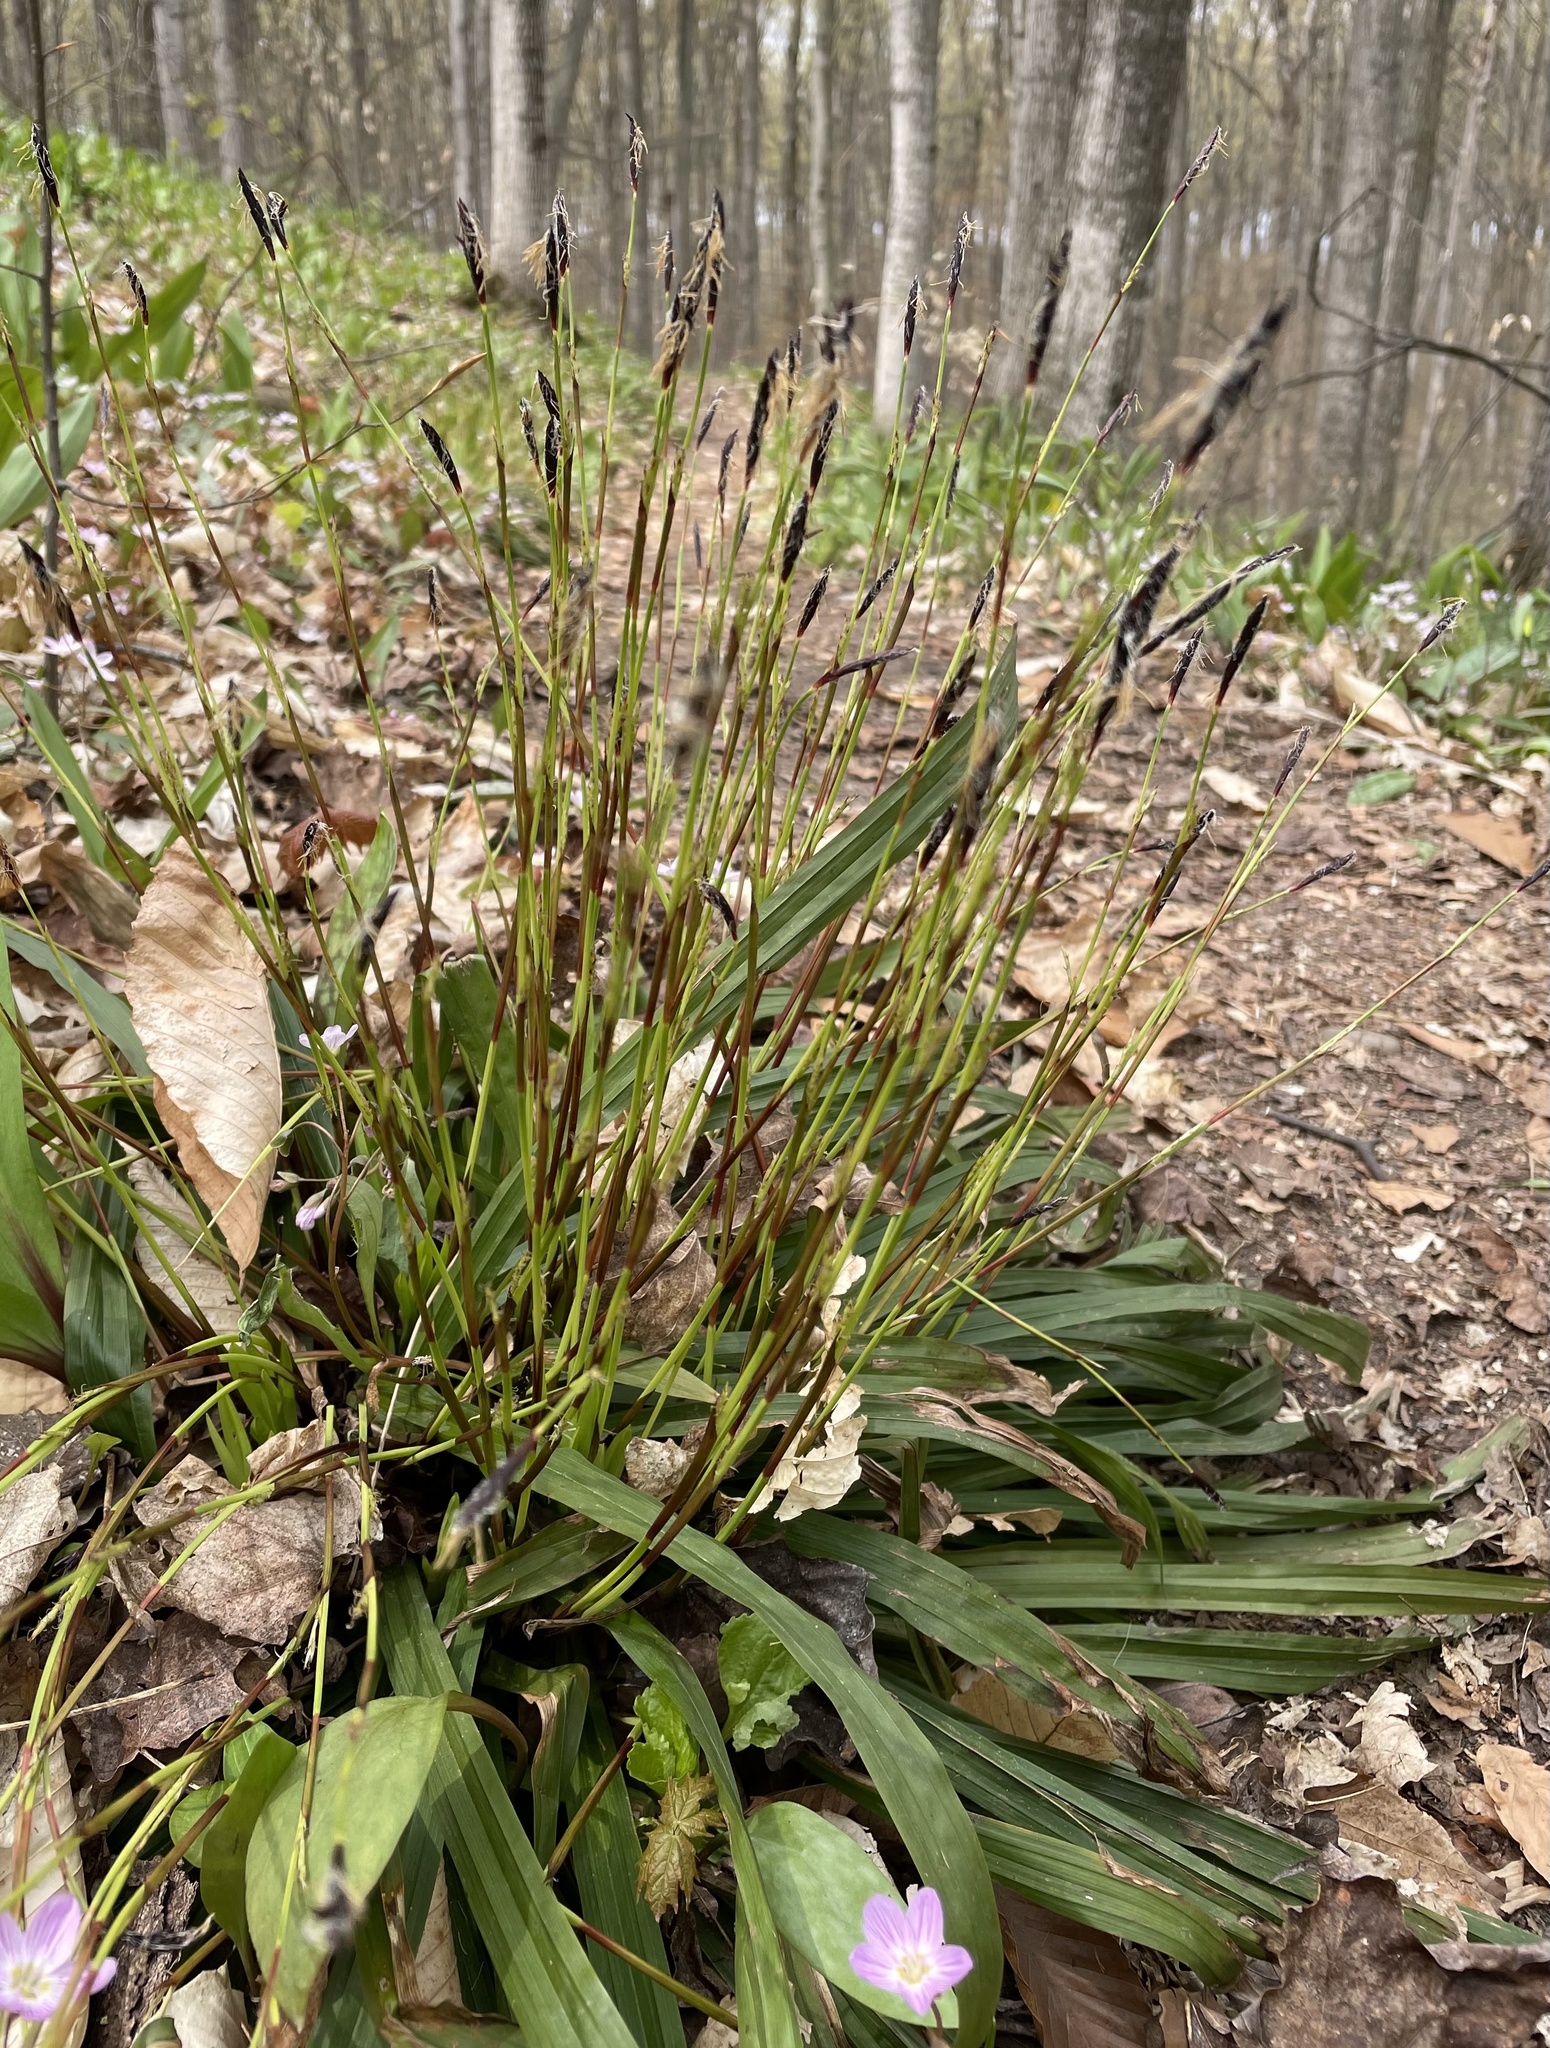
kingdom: Plantae
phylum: Tracheophyta
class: Liliopsida
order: Poales
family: Cyperaceae
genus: Carex
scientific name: Carex plantaginea
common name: Plantain-leaved sedge
